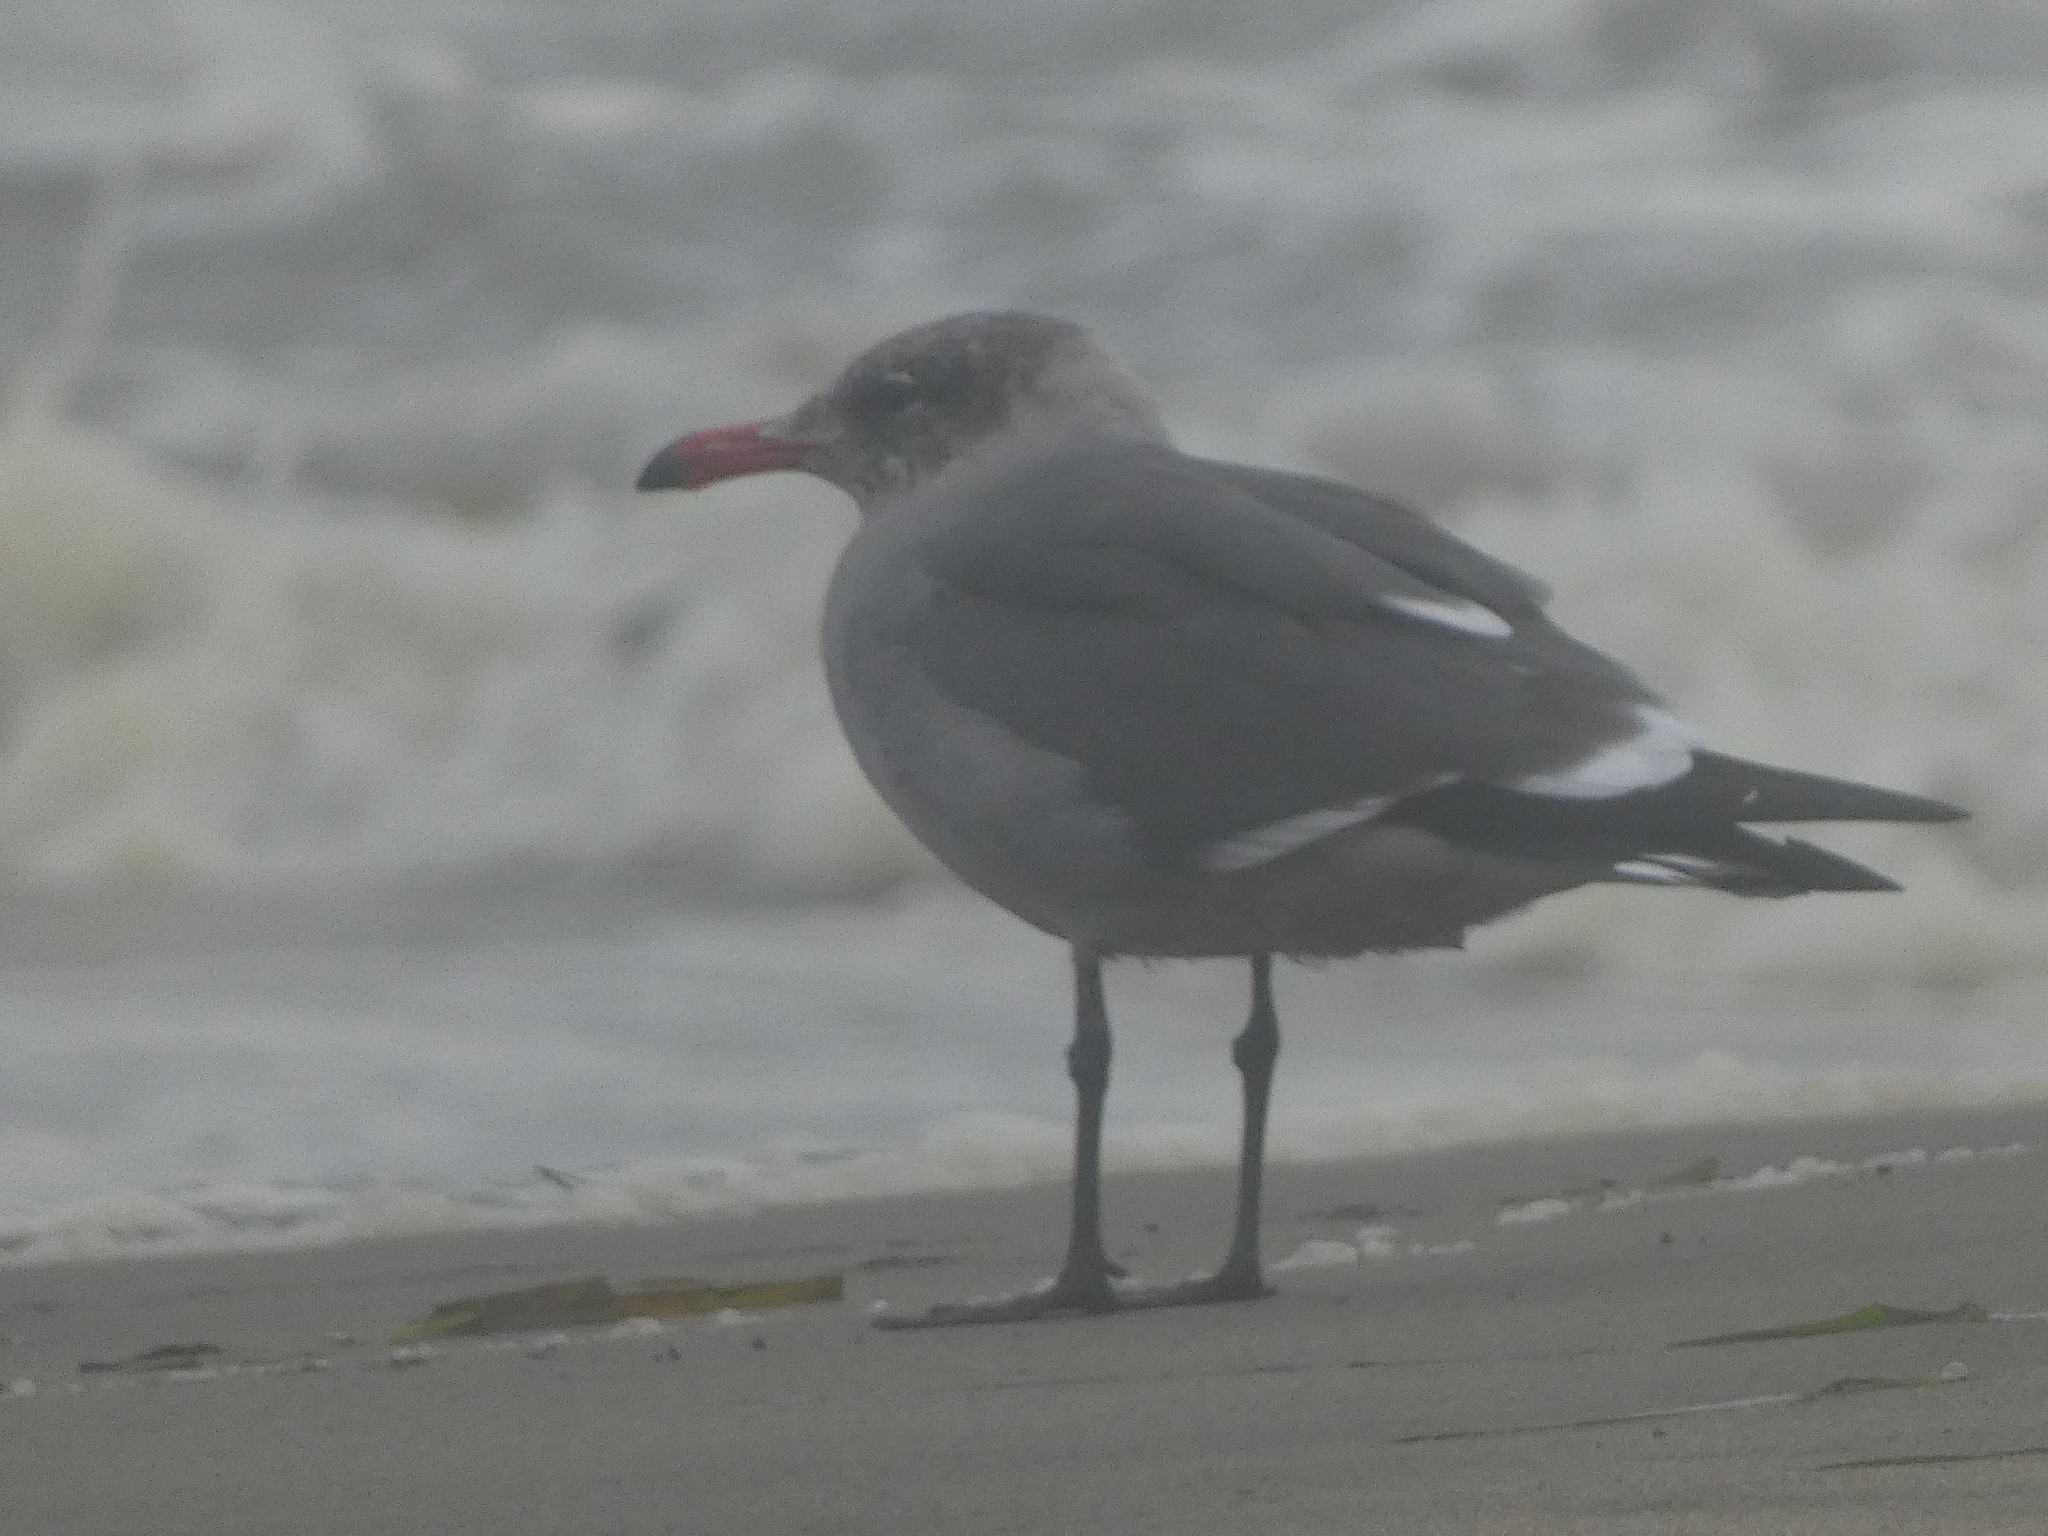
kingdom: Animalia
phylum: Chordata
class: Aves
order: Charadriiformes
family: Laridae
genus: Larus
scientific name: Larus heermanni
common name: Heermann's gull
